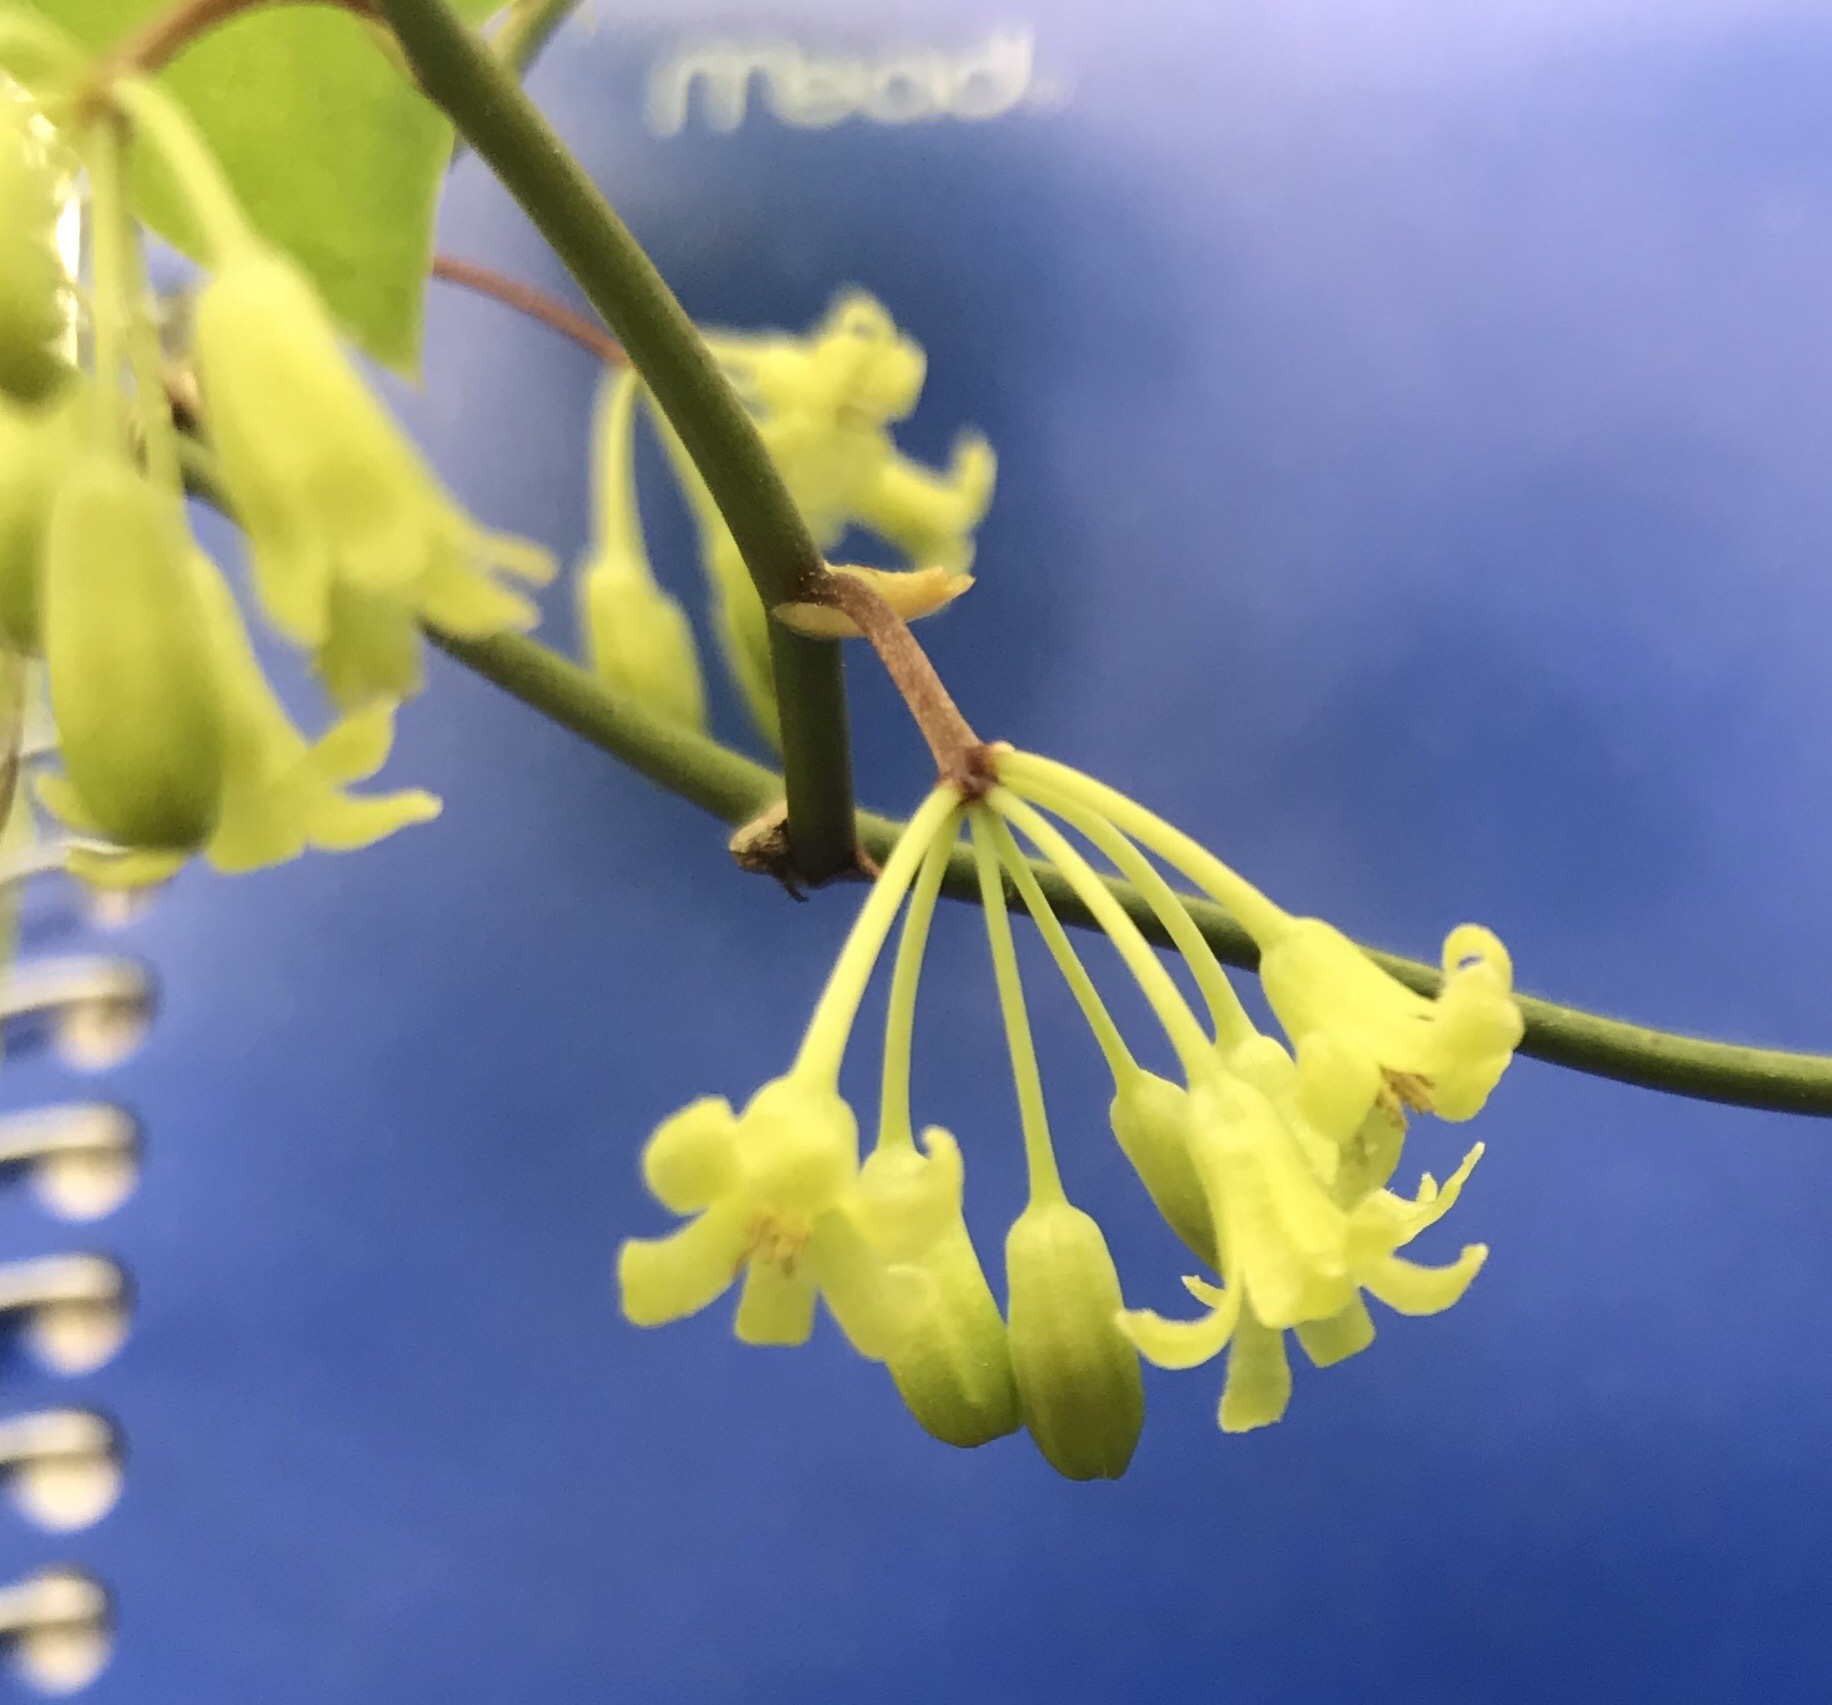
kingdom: Plantae
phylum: Tracheophyta
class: Liliopsida
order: Liliales
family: Smilacaceae
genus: Smilax
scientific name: Smilax rotundifolia
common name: Bullbriar
